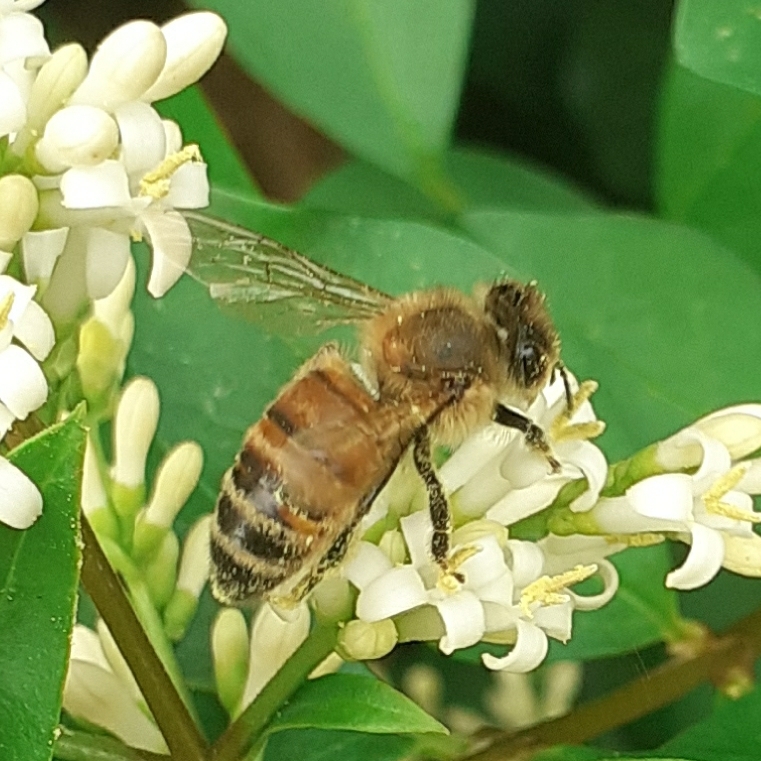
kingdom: Animalia
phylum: Arthropoda
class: Insecta
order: Hymenoptera
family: Apidae
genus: Apis
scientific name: Apis mellifera
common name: Honey bee
